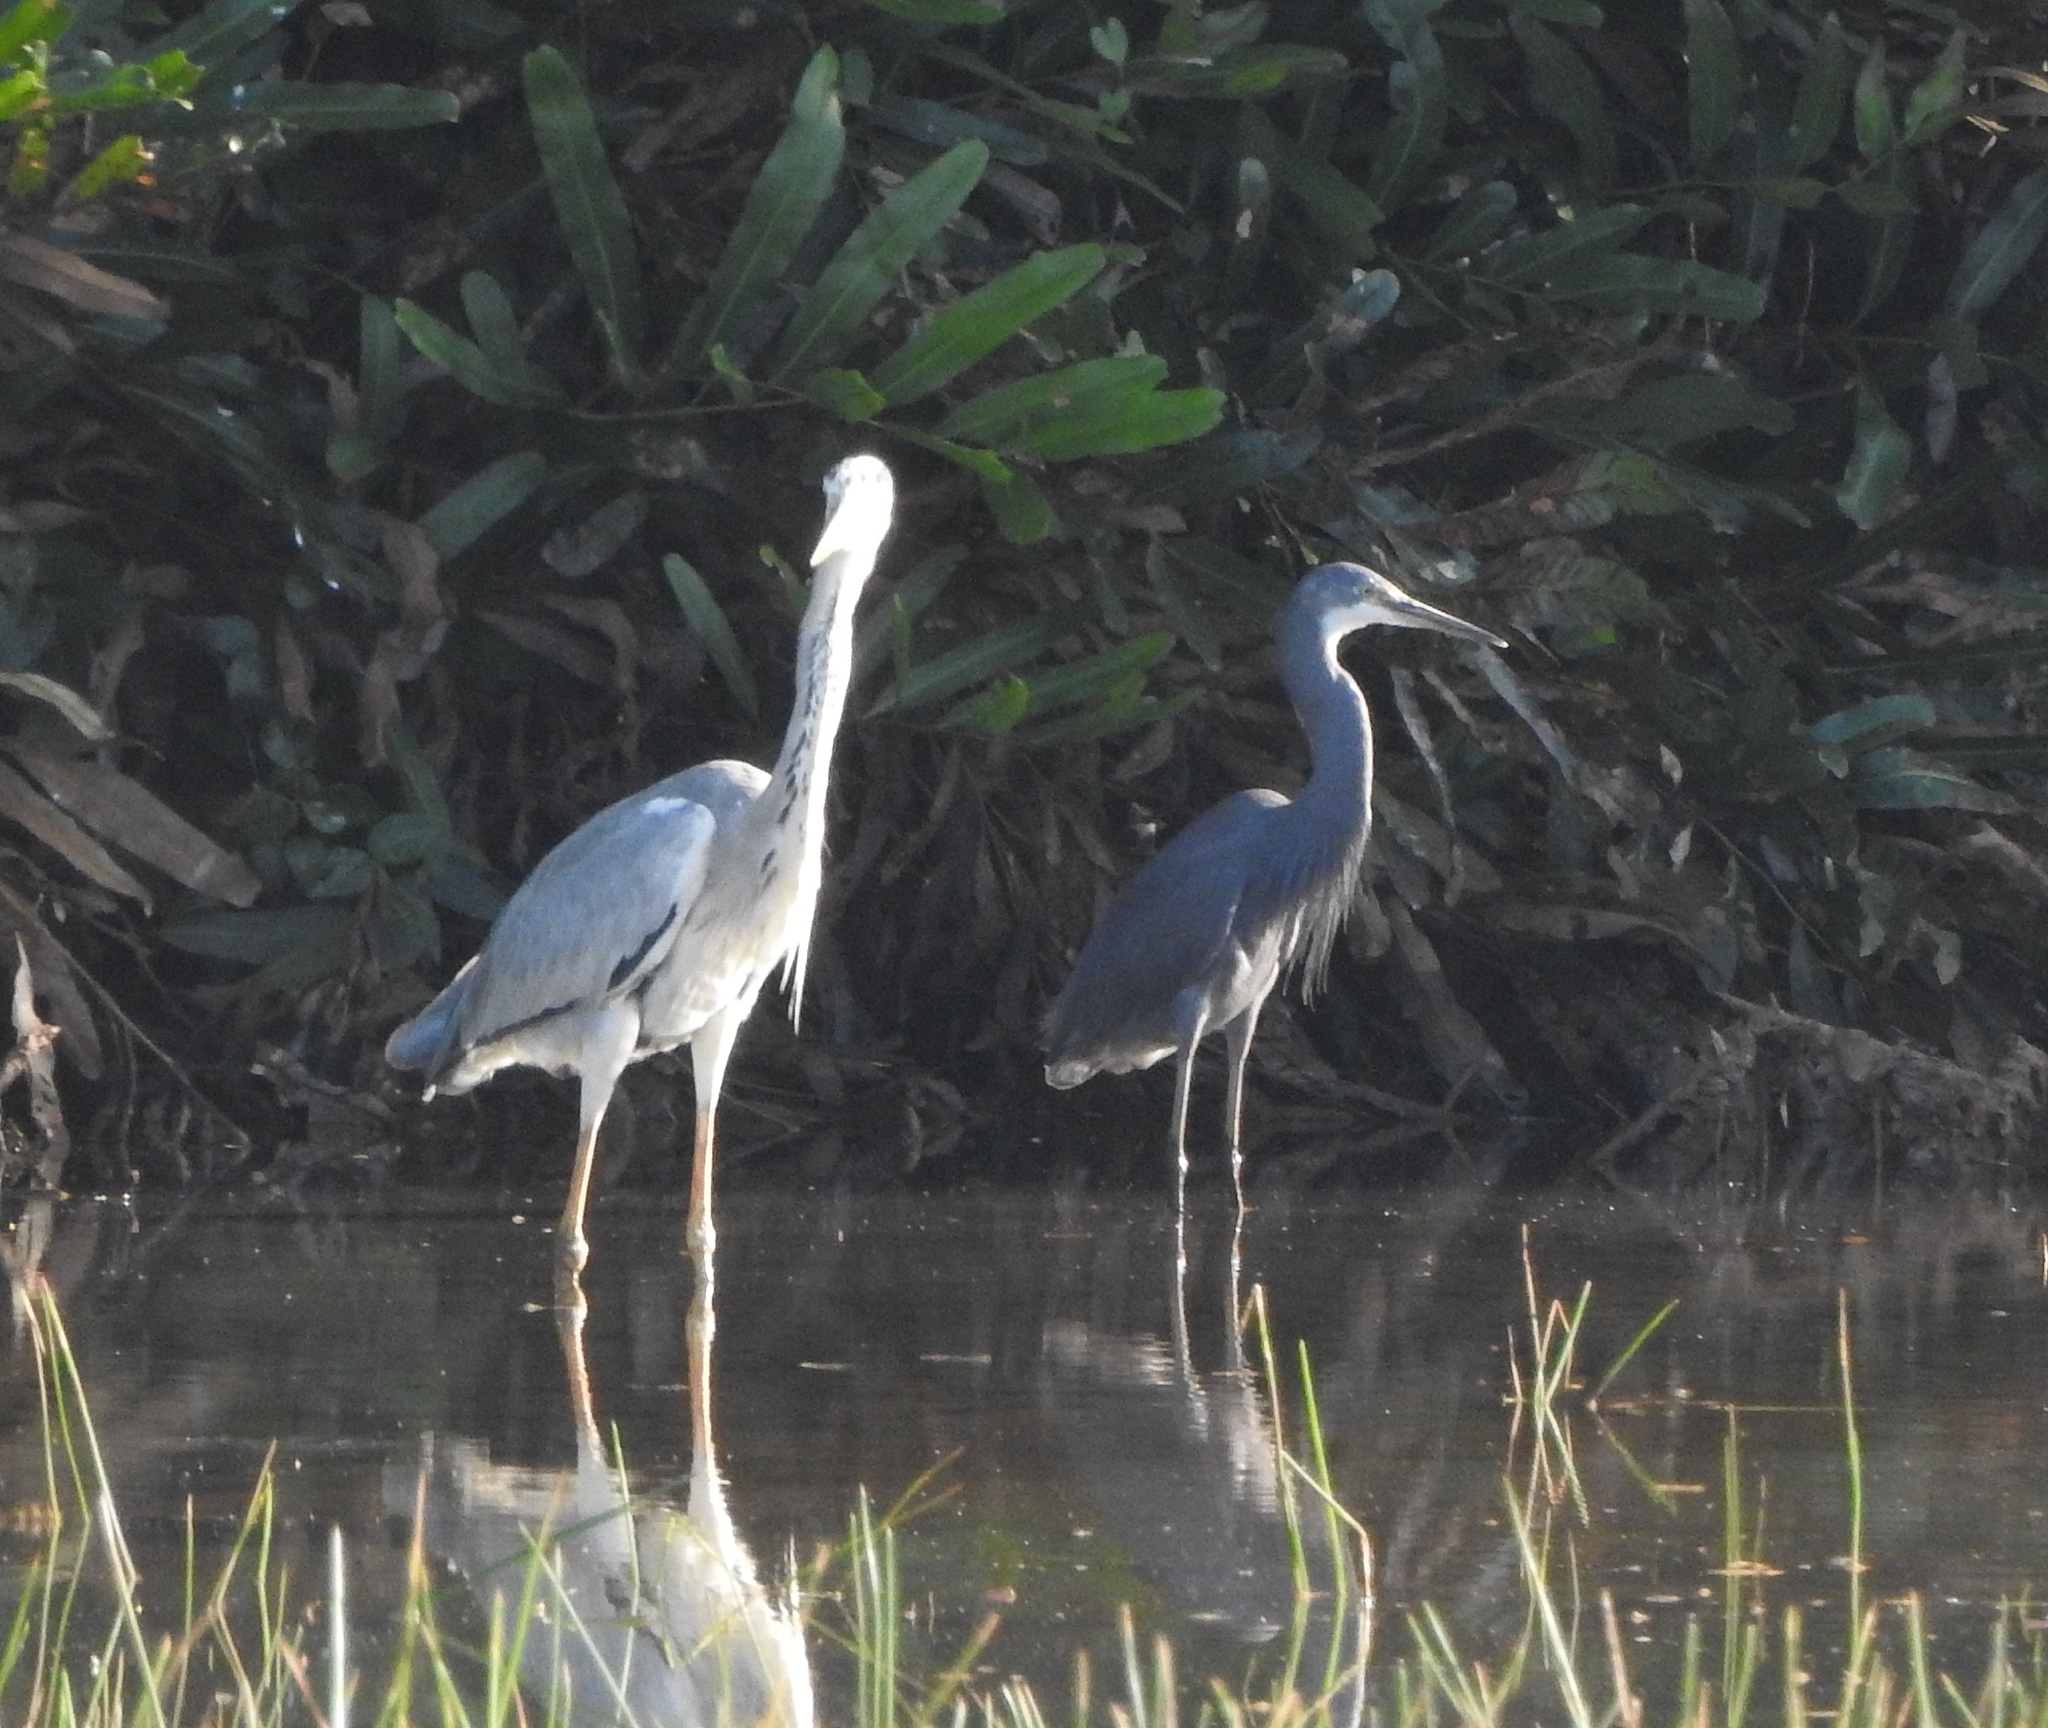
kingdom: Animalia
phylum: Chordata
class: Aves
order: Pelecaniformes
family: Ardeidae
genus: Ardea
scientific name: Ardea cinerea
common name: Grey heron
